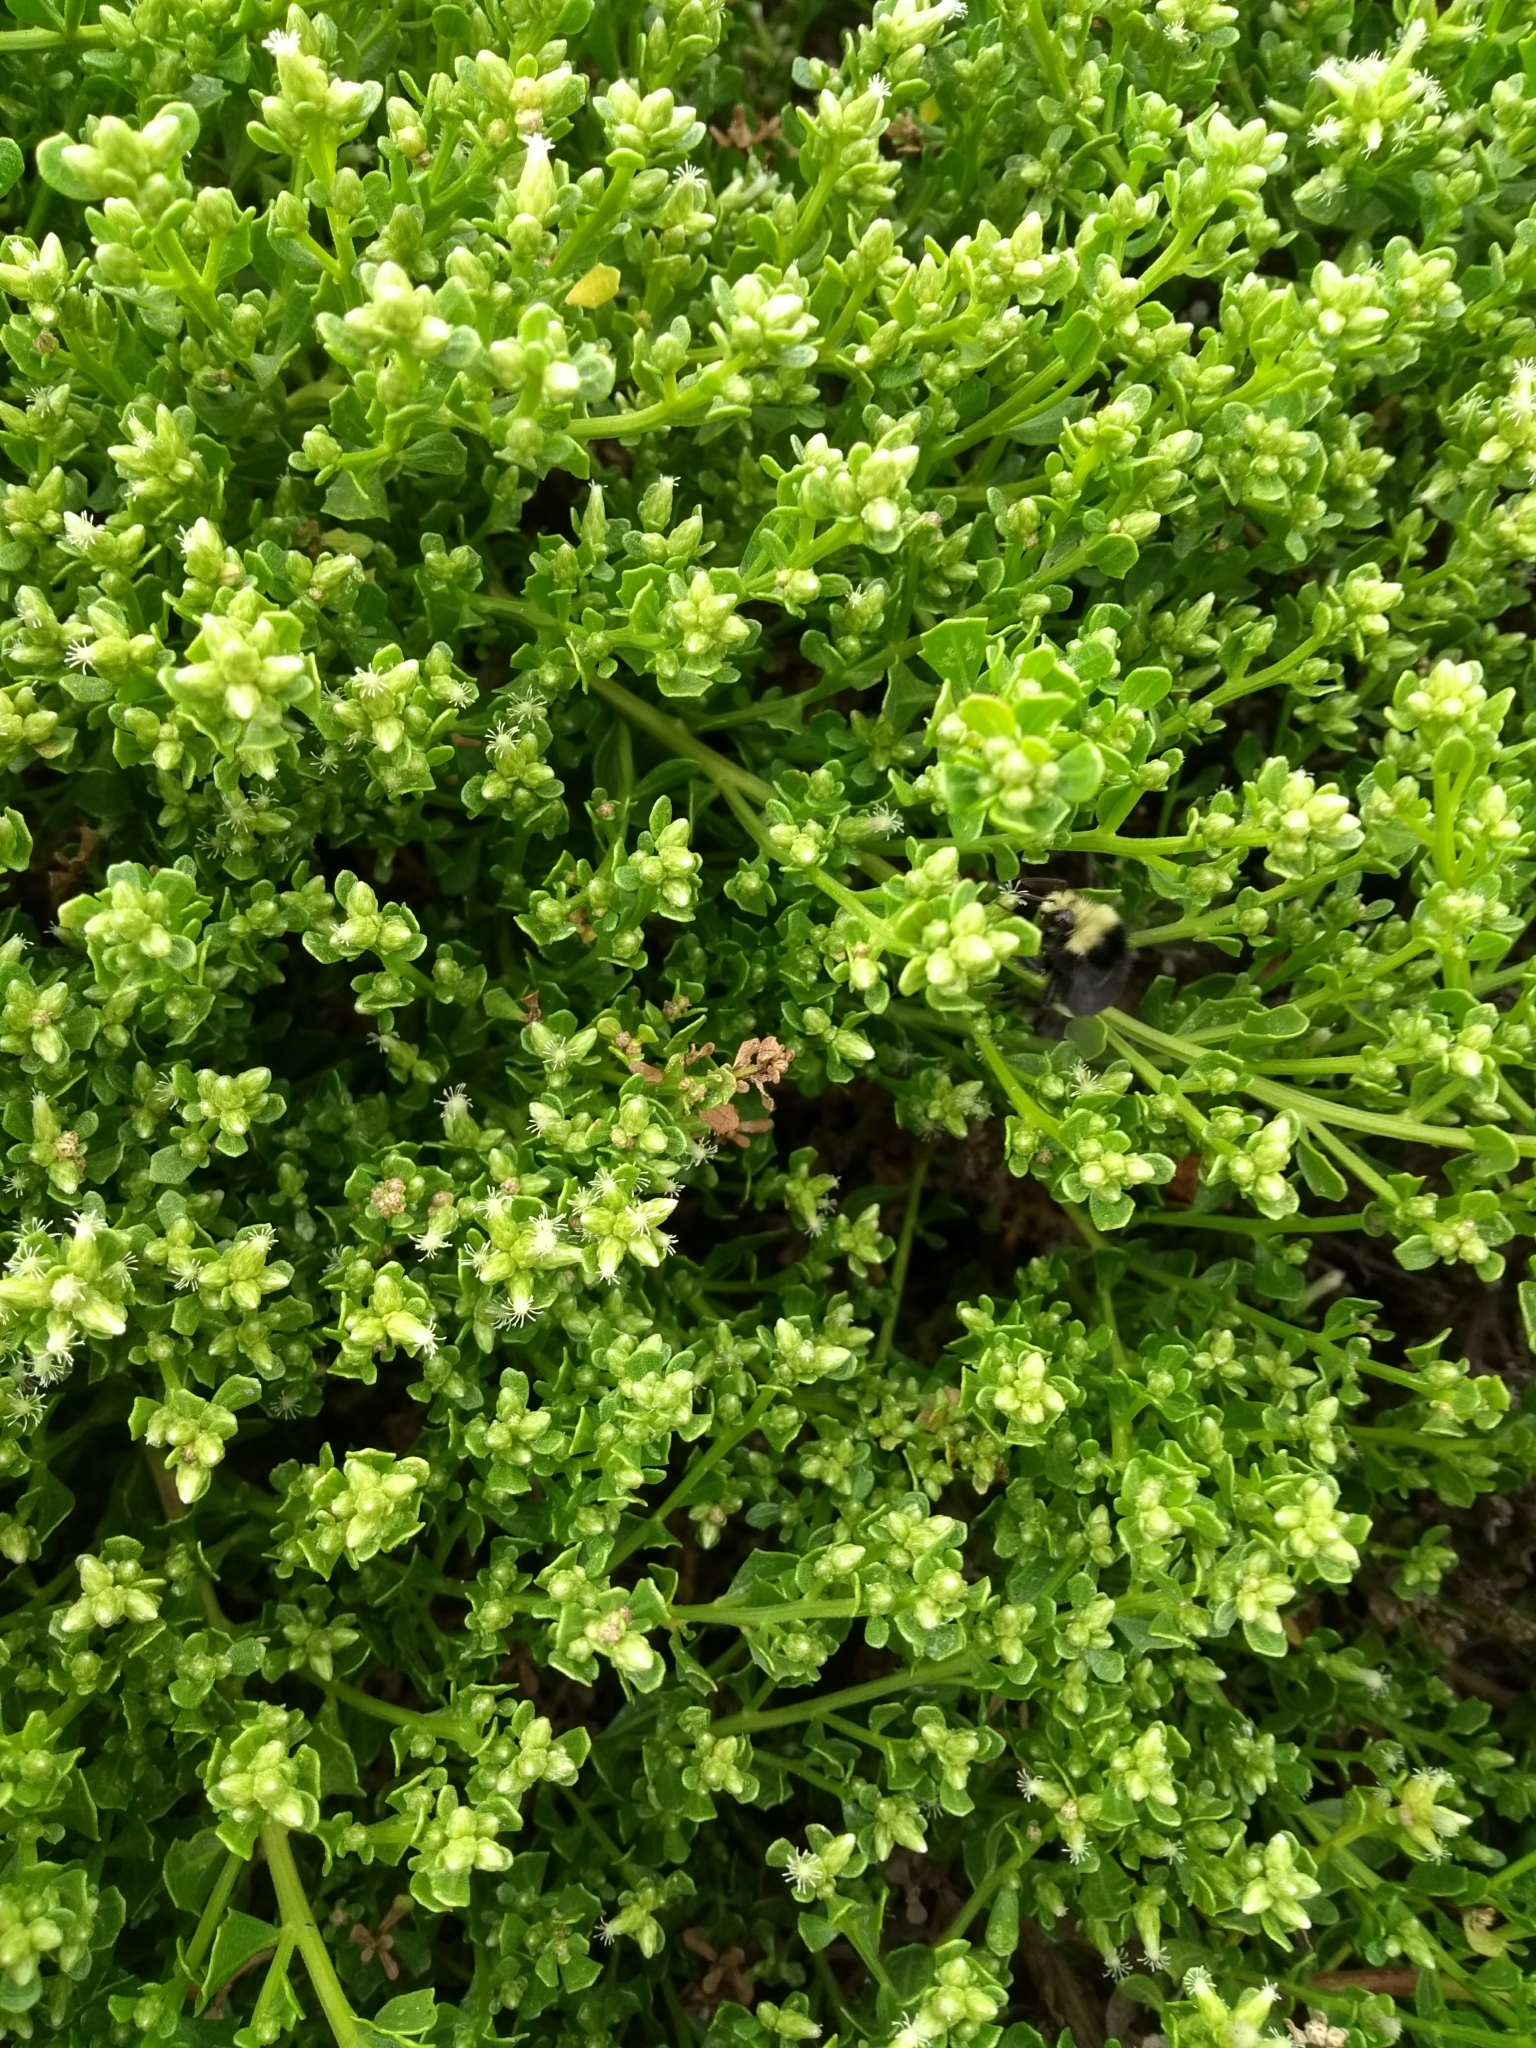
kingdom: Plantae
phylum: Tracheophyta
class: Magnoliopsida
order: Asterales
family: Asteraceae
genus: Baccharis
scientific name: Baccharis pilularis
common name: Coyotebrush
